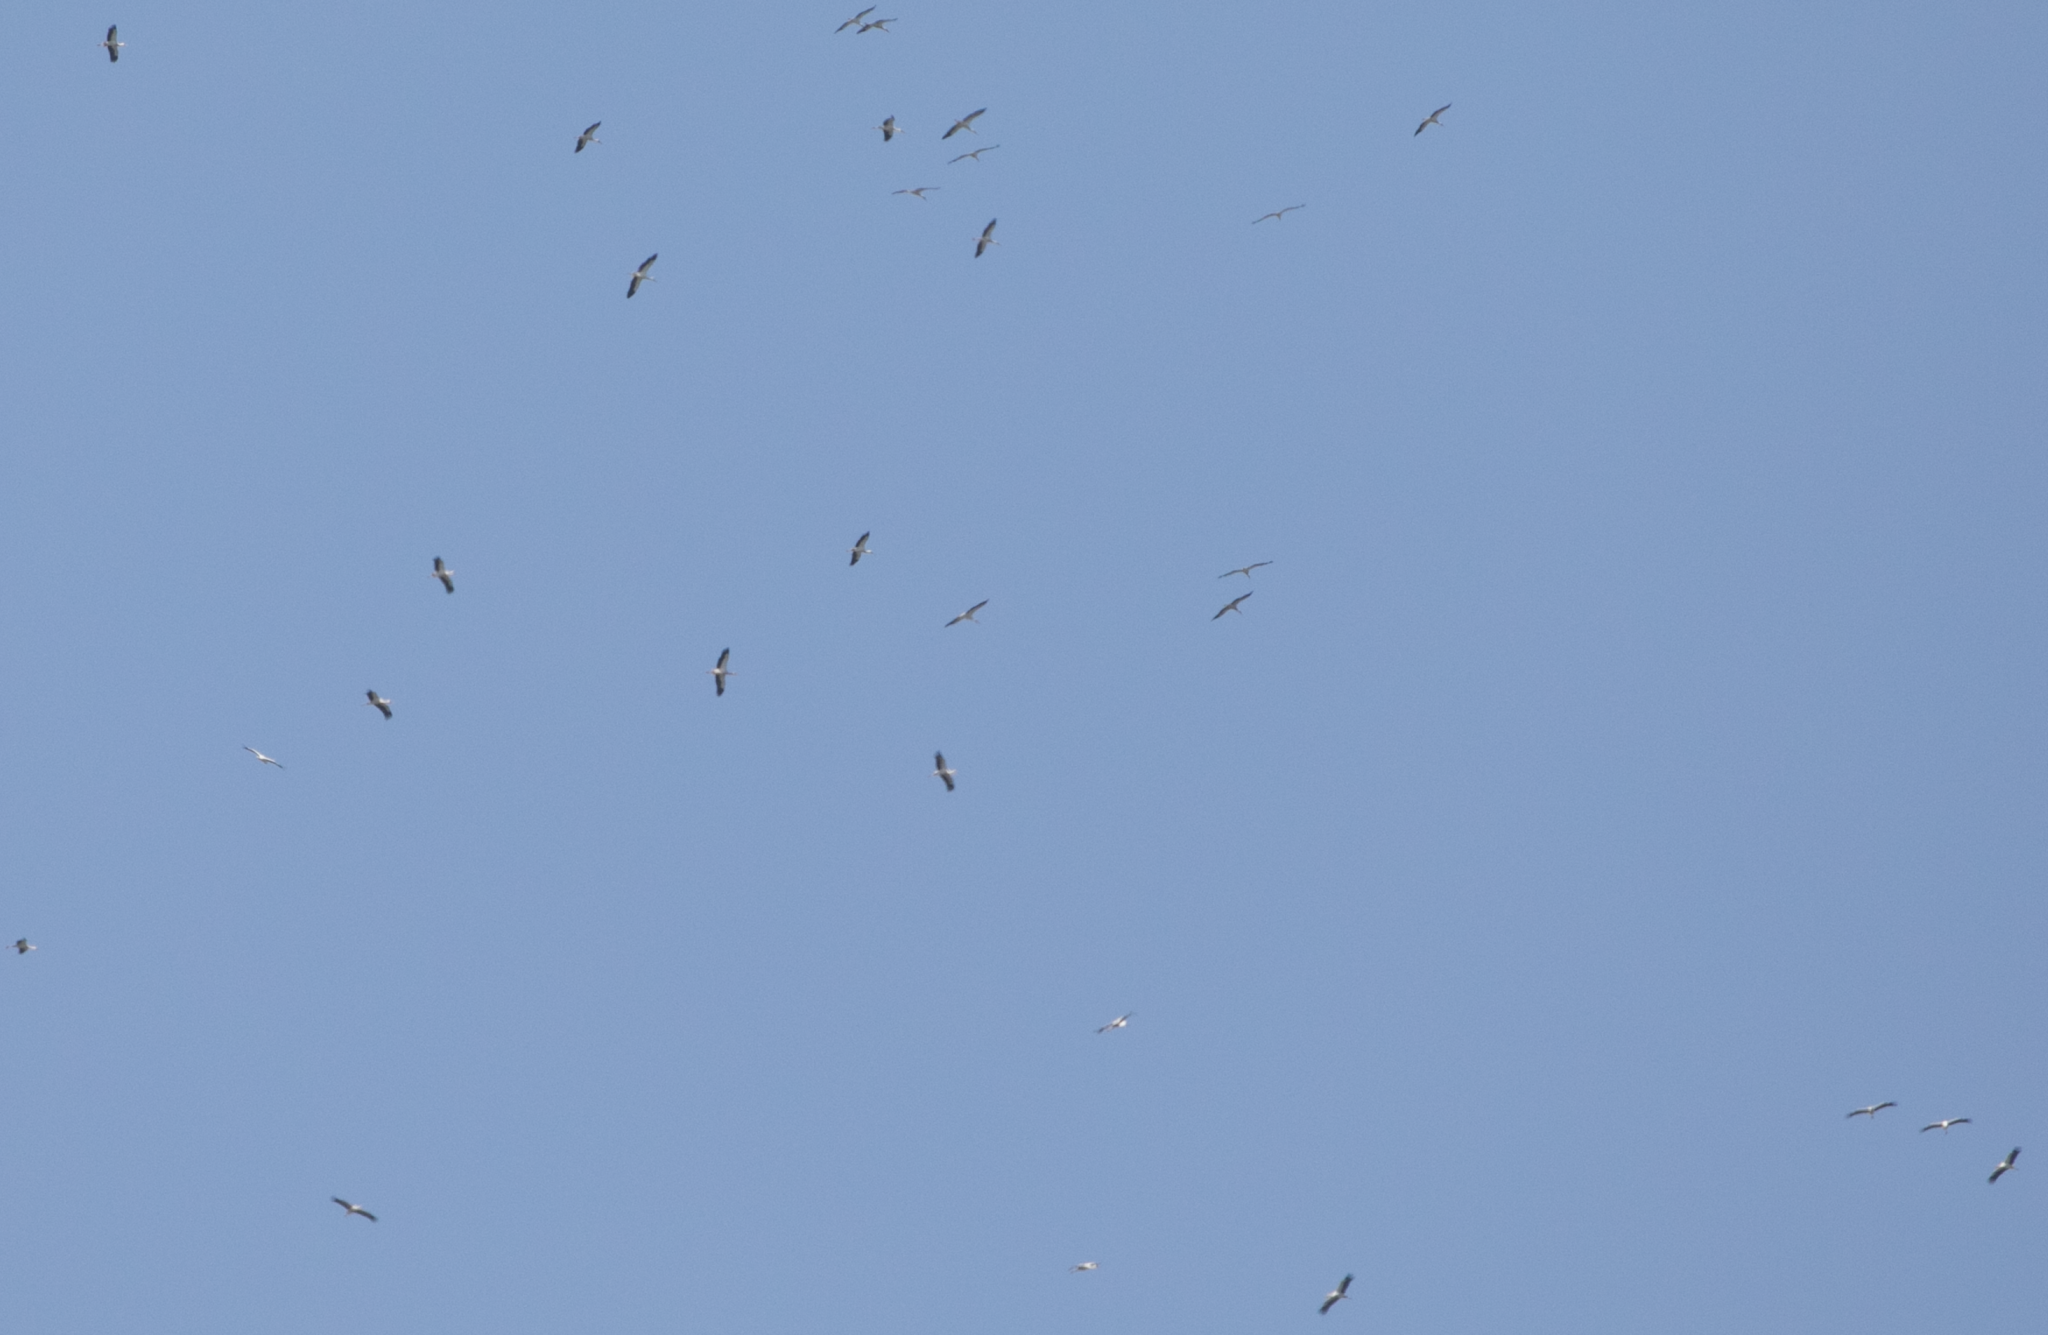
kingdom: Animalia
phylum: Chordata
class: Aves
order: Ciconiiformes
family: Ciconiidae
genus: Ciconia
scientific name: Ciconia ciconia
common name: White stork
